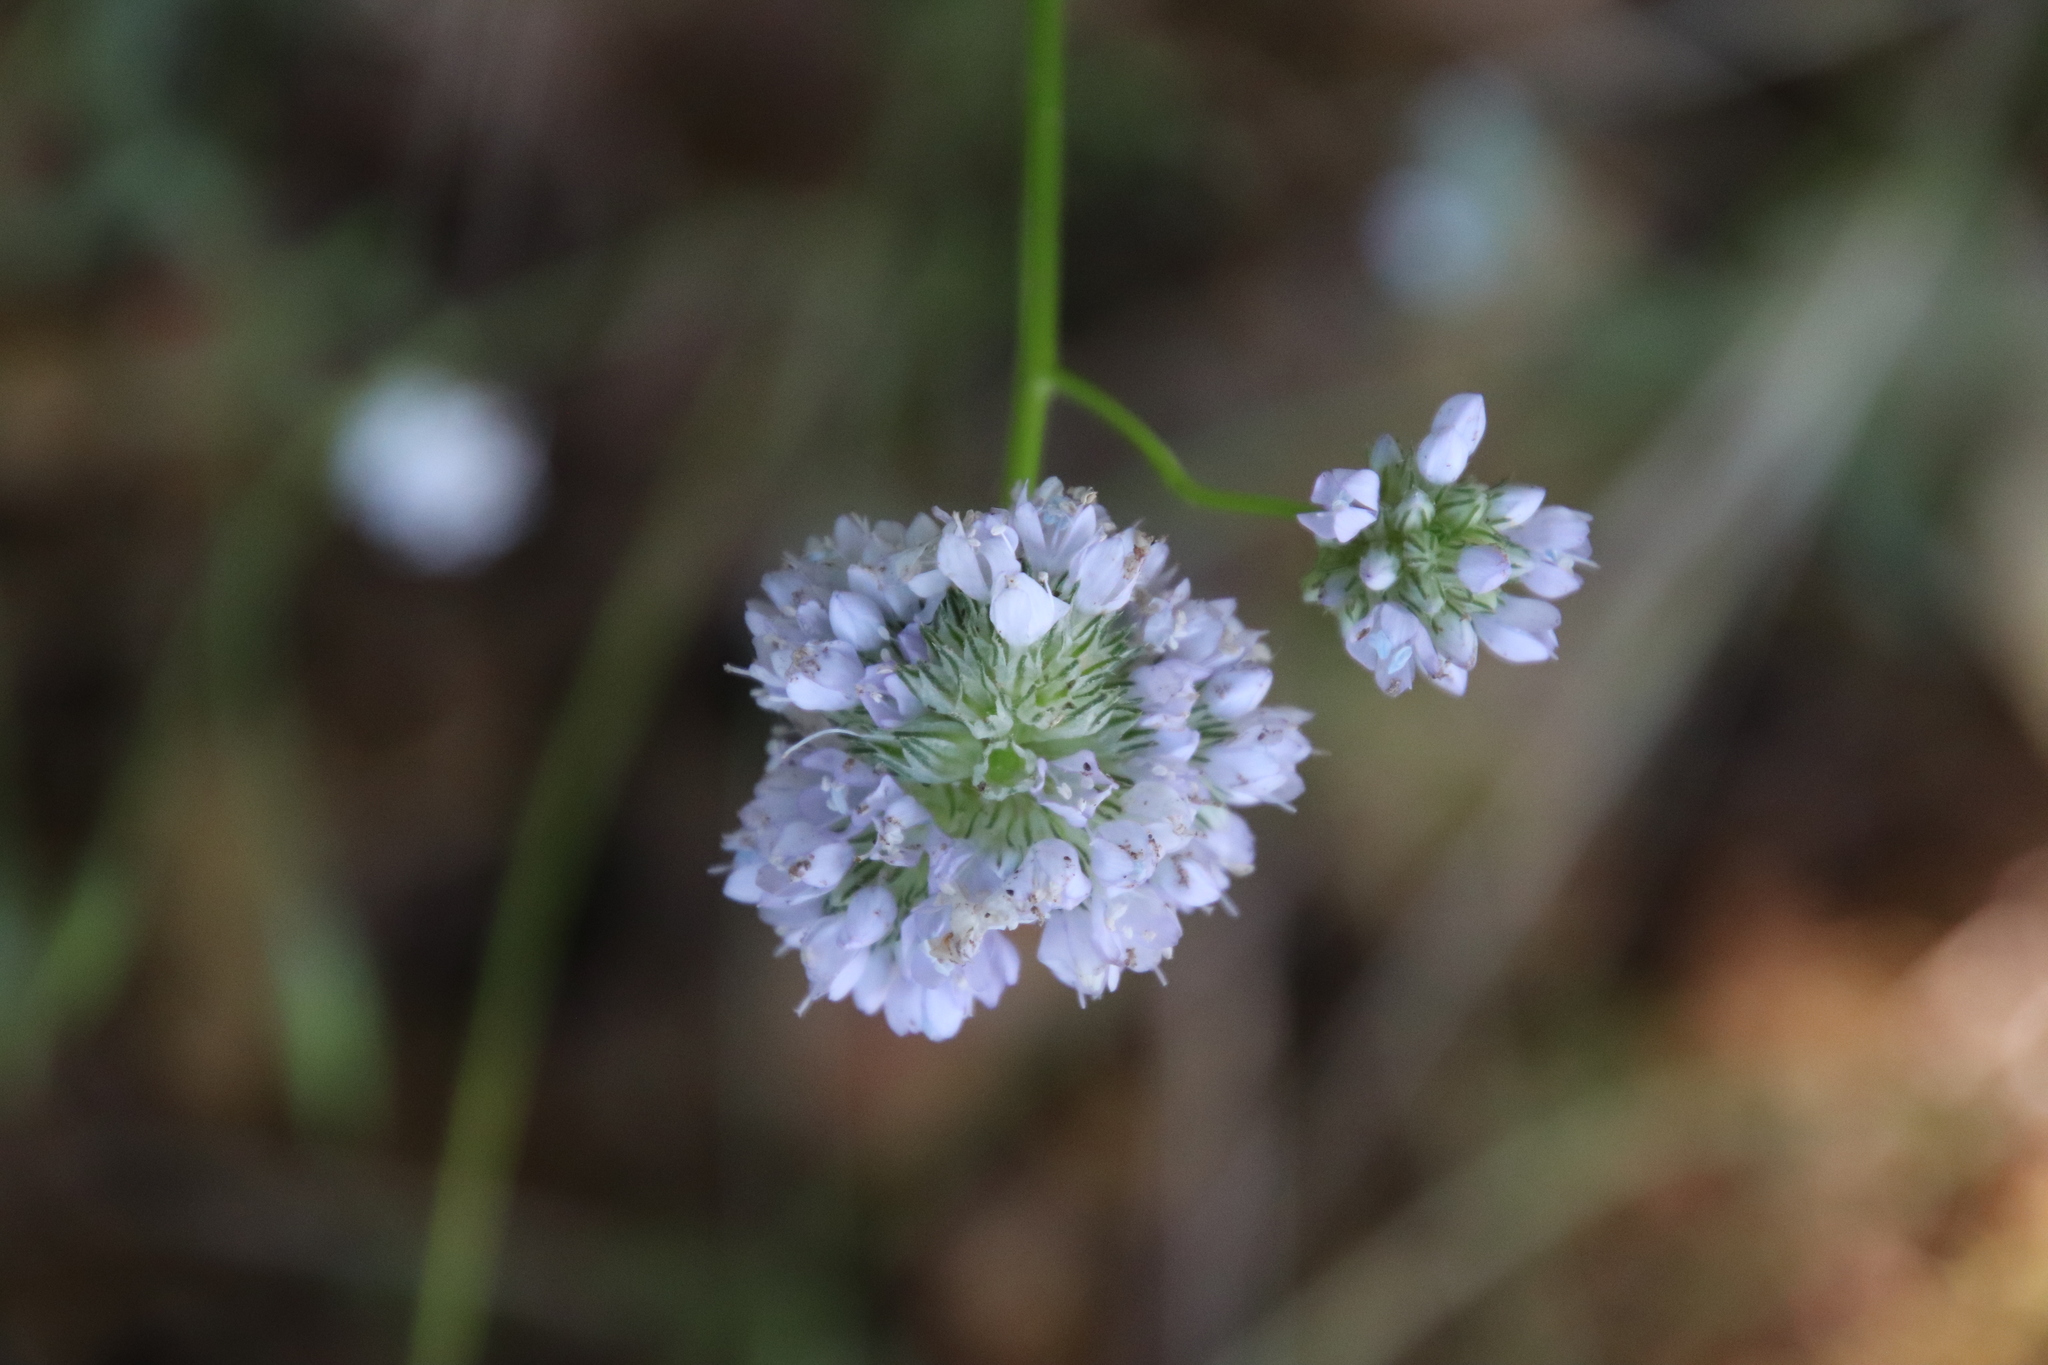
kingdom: Plantae
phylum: Tracheophyta
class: Magnoliopsida
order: Ericales
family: Polemoniaceae
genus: Gilia
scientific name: Gilia capitata
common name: Bluehead gilia
